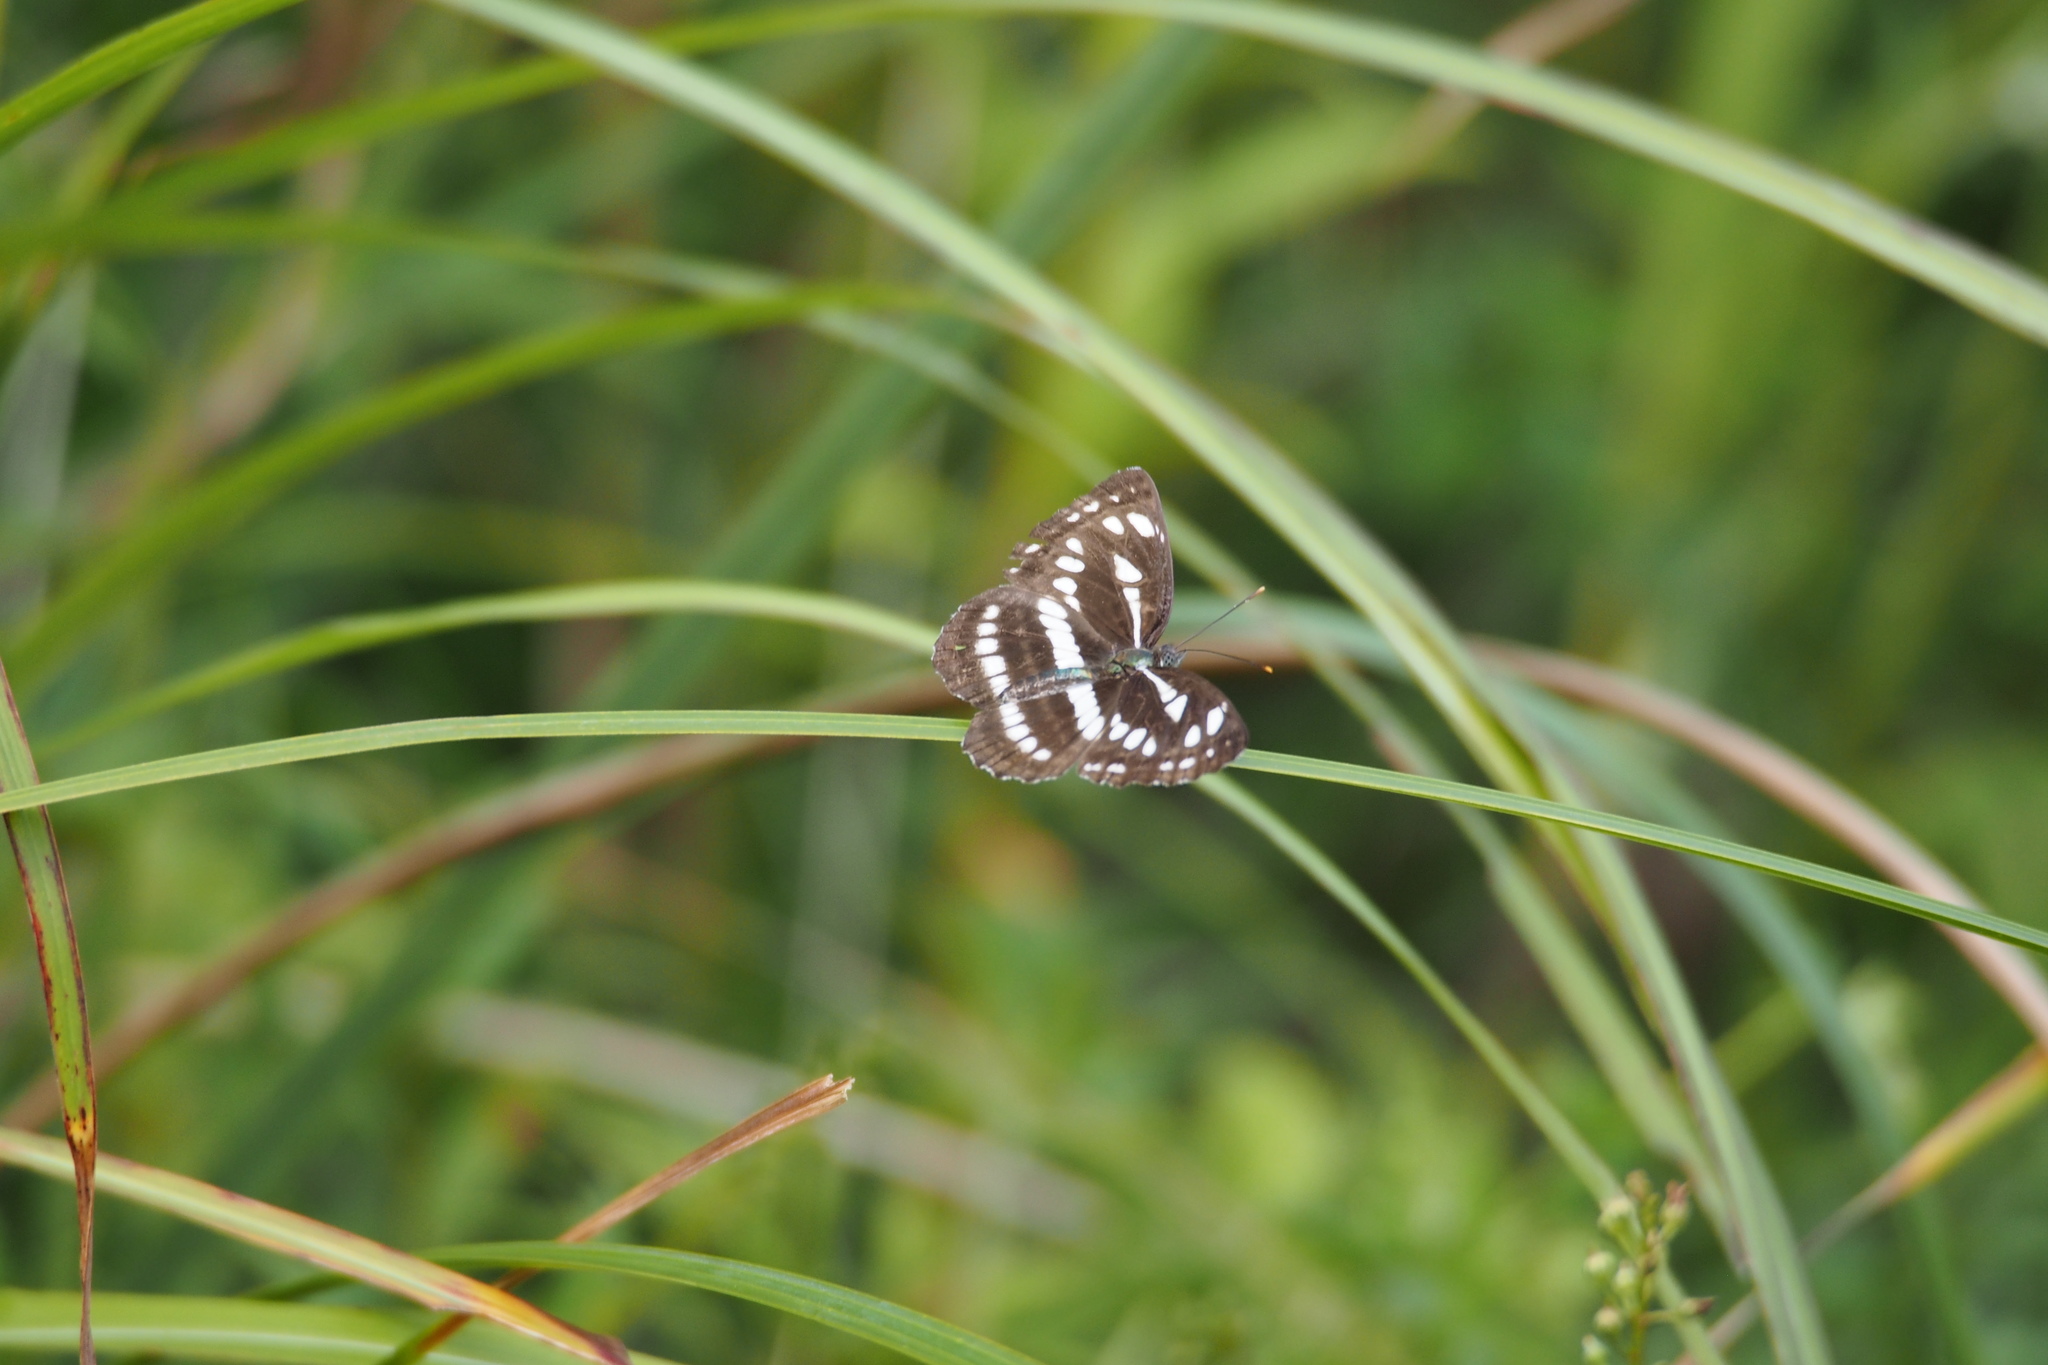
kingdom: Animalia
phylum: Arthropoda
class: Insecta
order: Lepidoptera
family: Nymphalidae
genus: Neptis
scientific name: Neptis sappho
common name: Common glider
